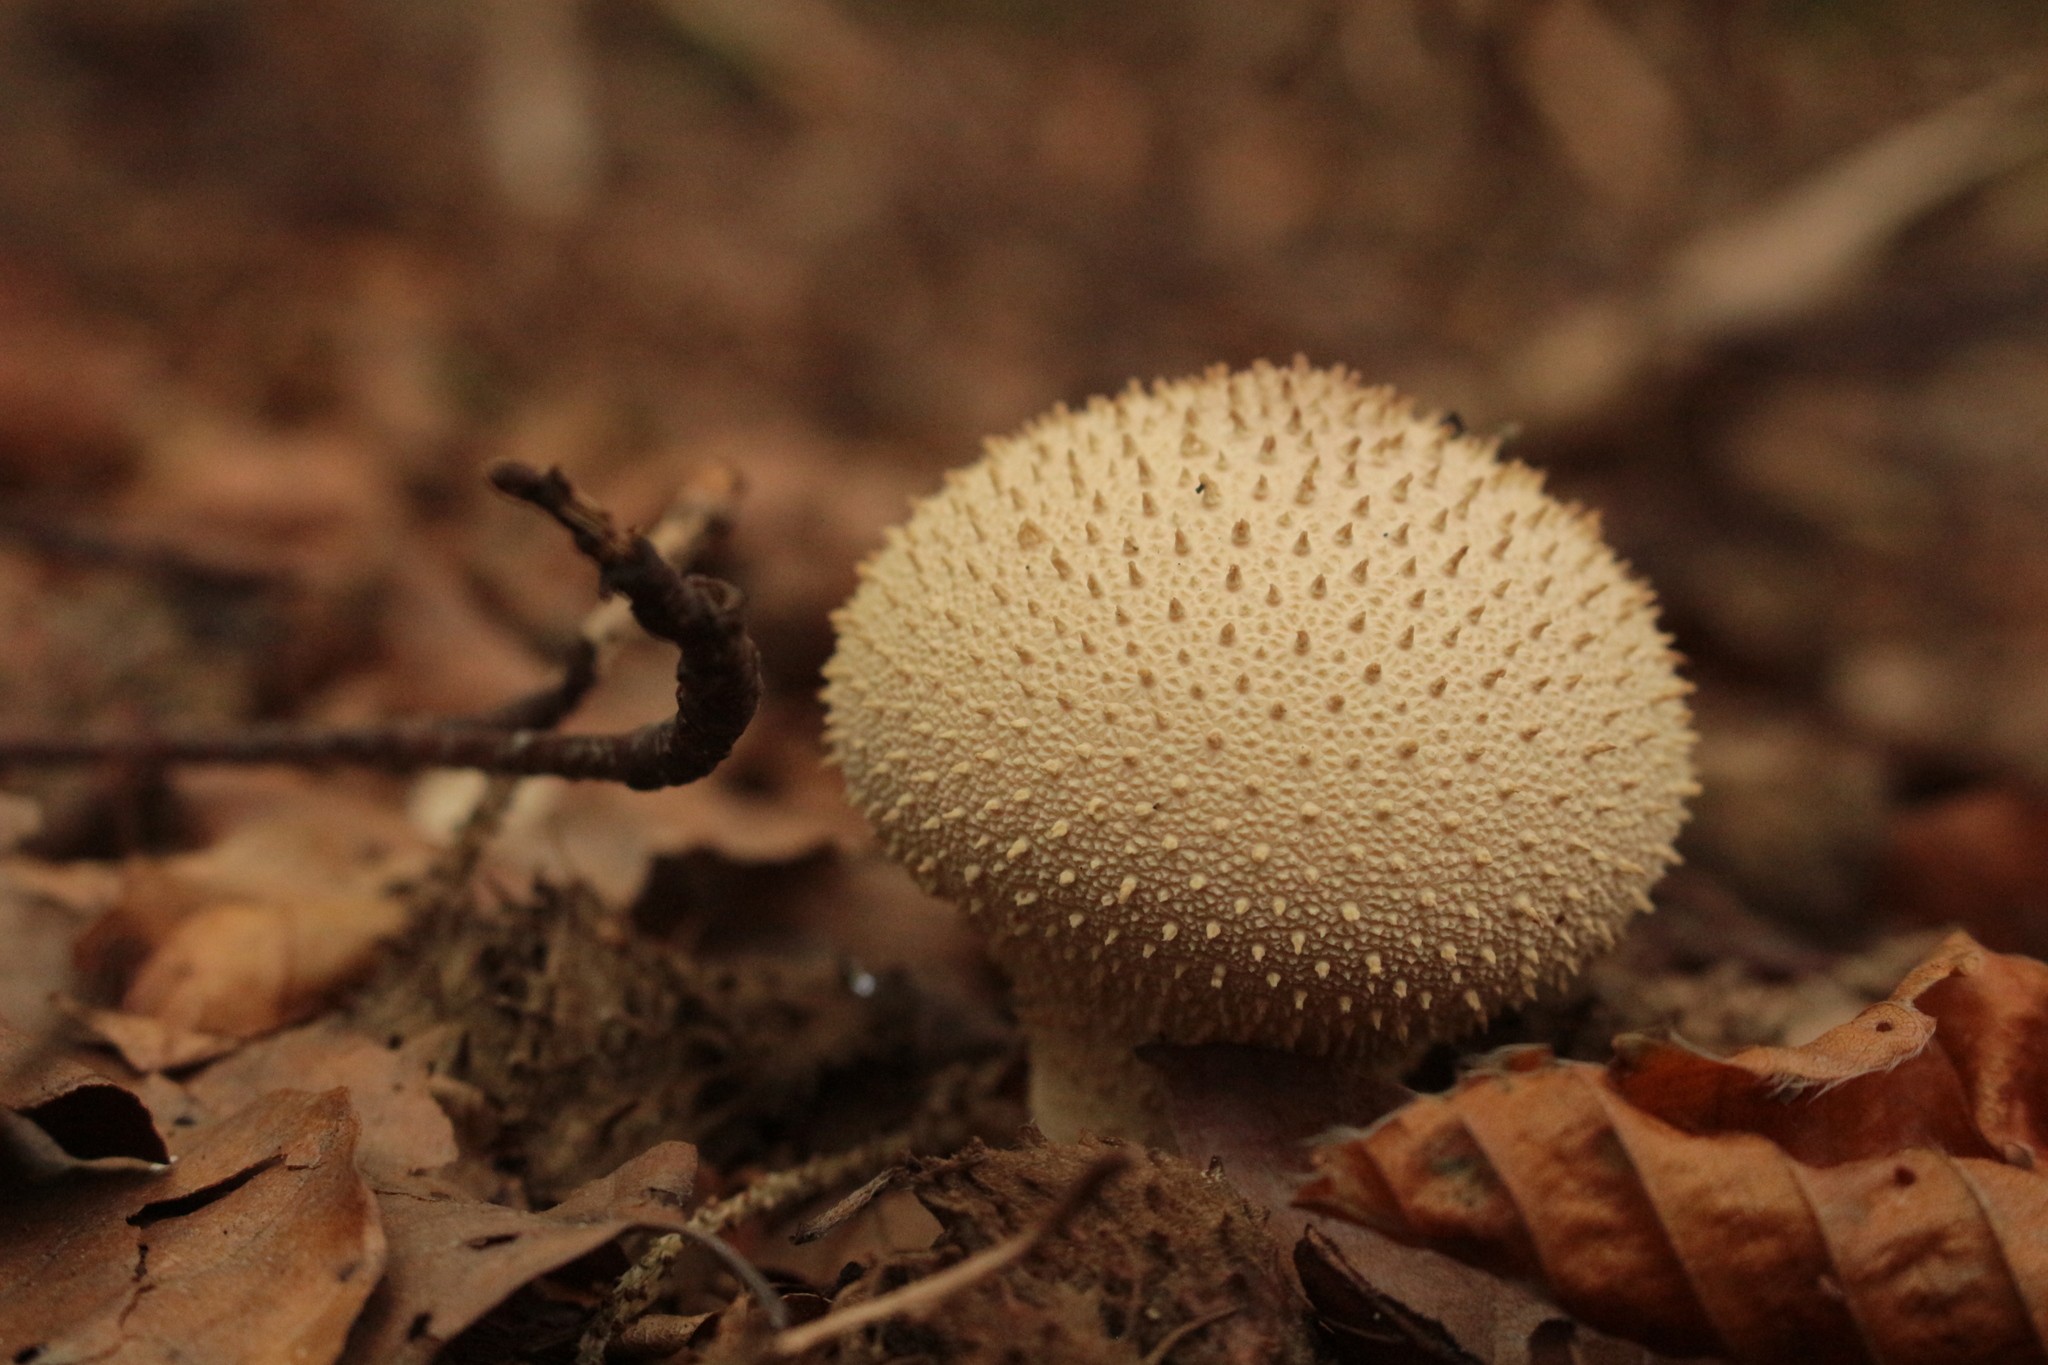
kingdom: Fungi
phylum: Basidiomycota
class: Agaricomycetes
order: Agaricales
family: Lycoperdaceae
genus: Lycoperdon
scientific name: Lycoperdon perlatum
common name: Common puffball
